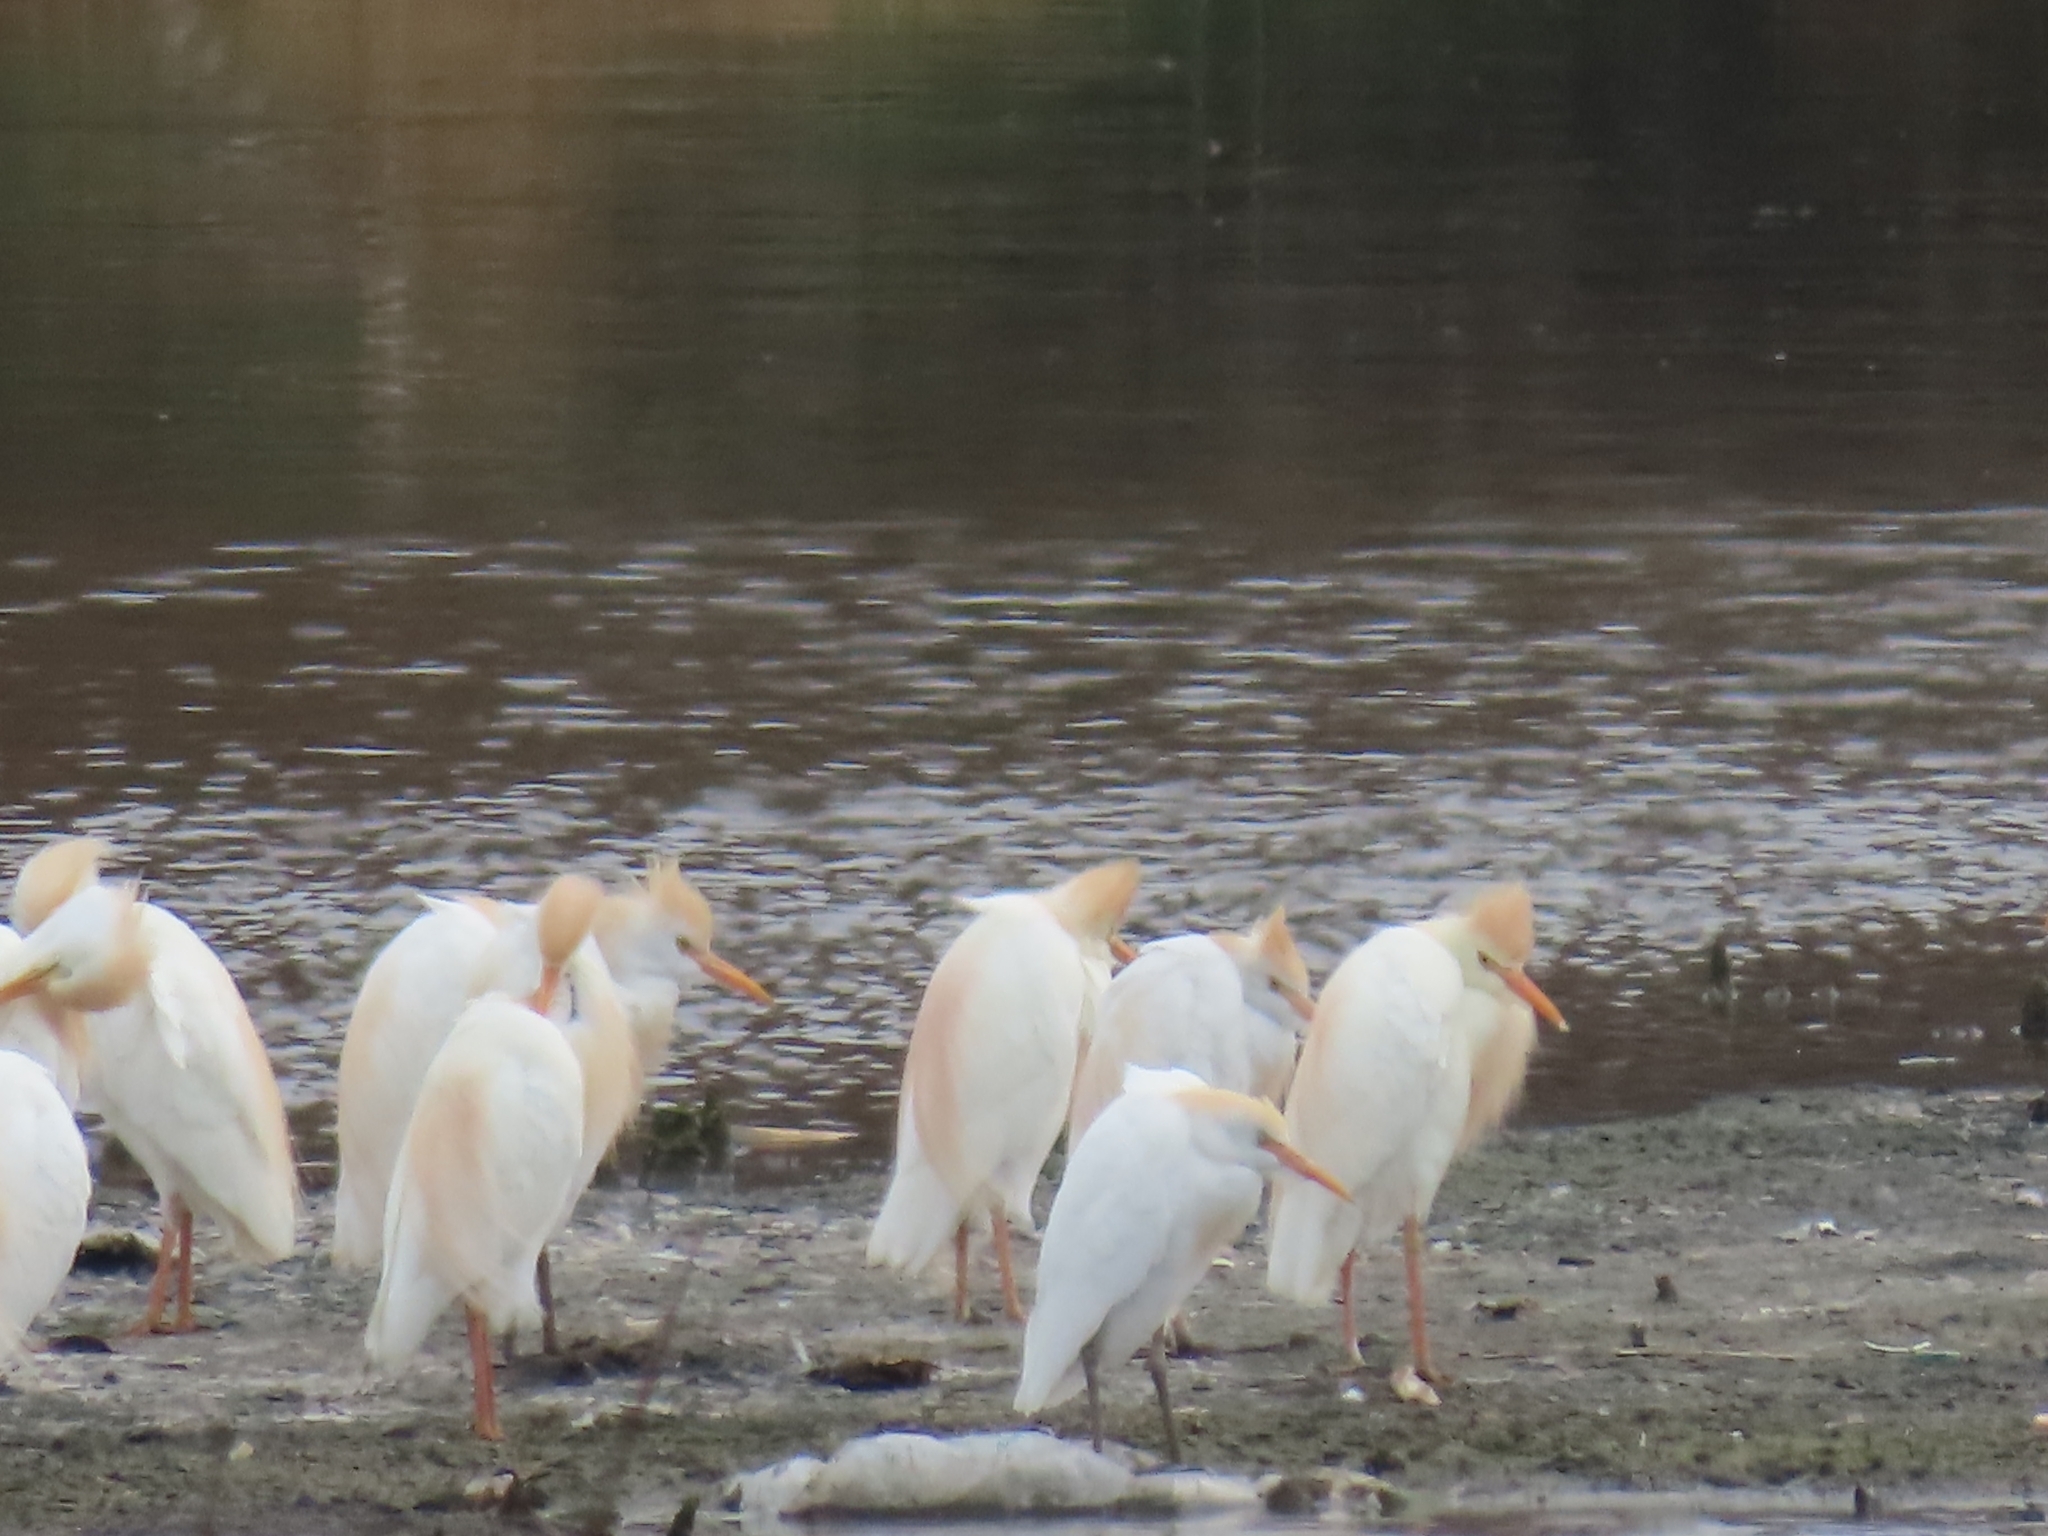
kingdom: Animalia
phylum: Chordata
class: Aves
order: Pelecaniformes
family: Ardeidae
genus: Bubulcus
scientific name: Bubulcus ibis
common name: Cattle egret
